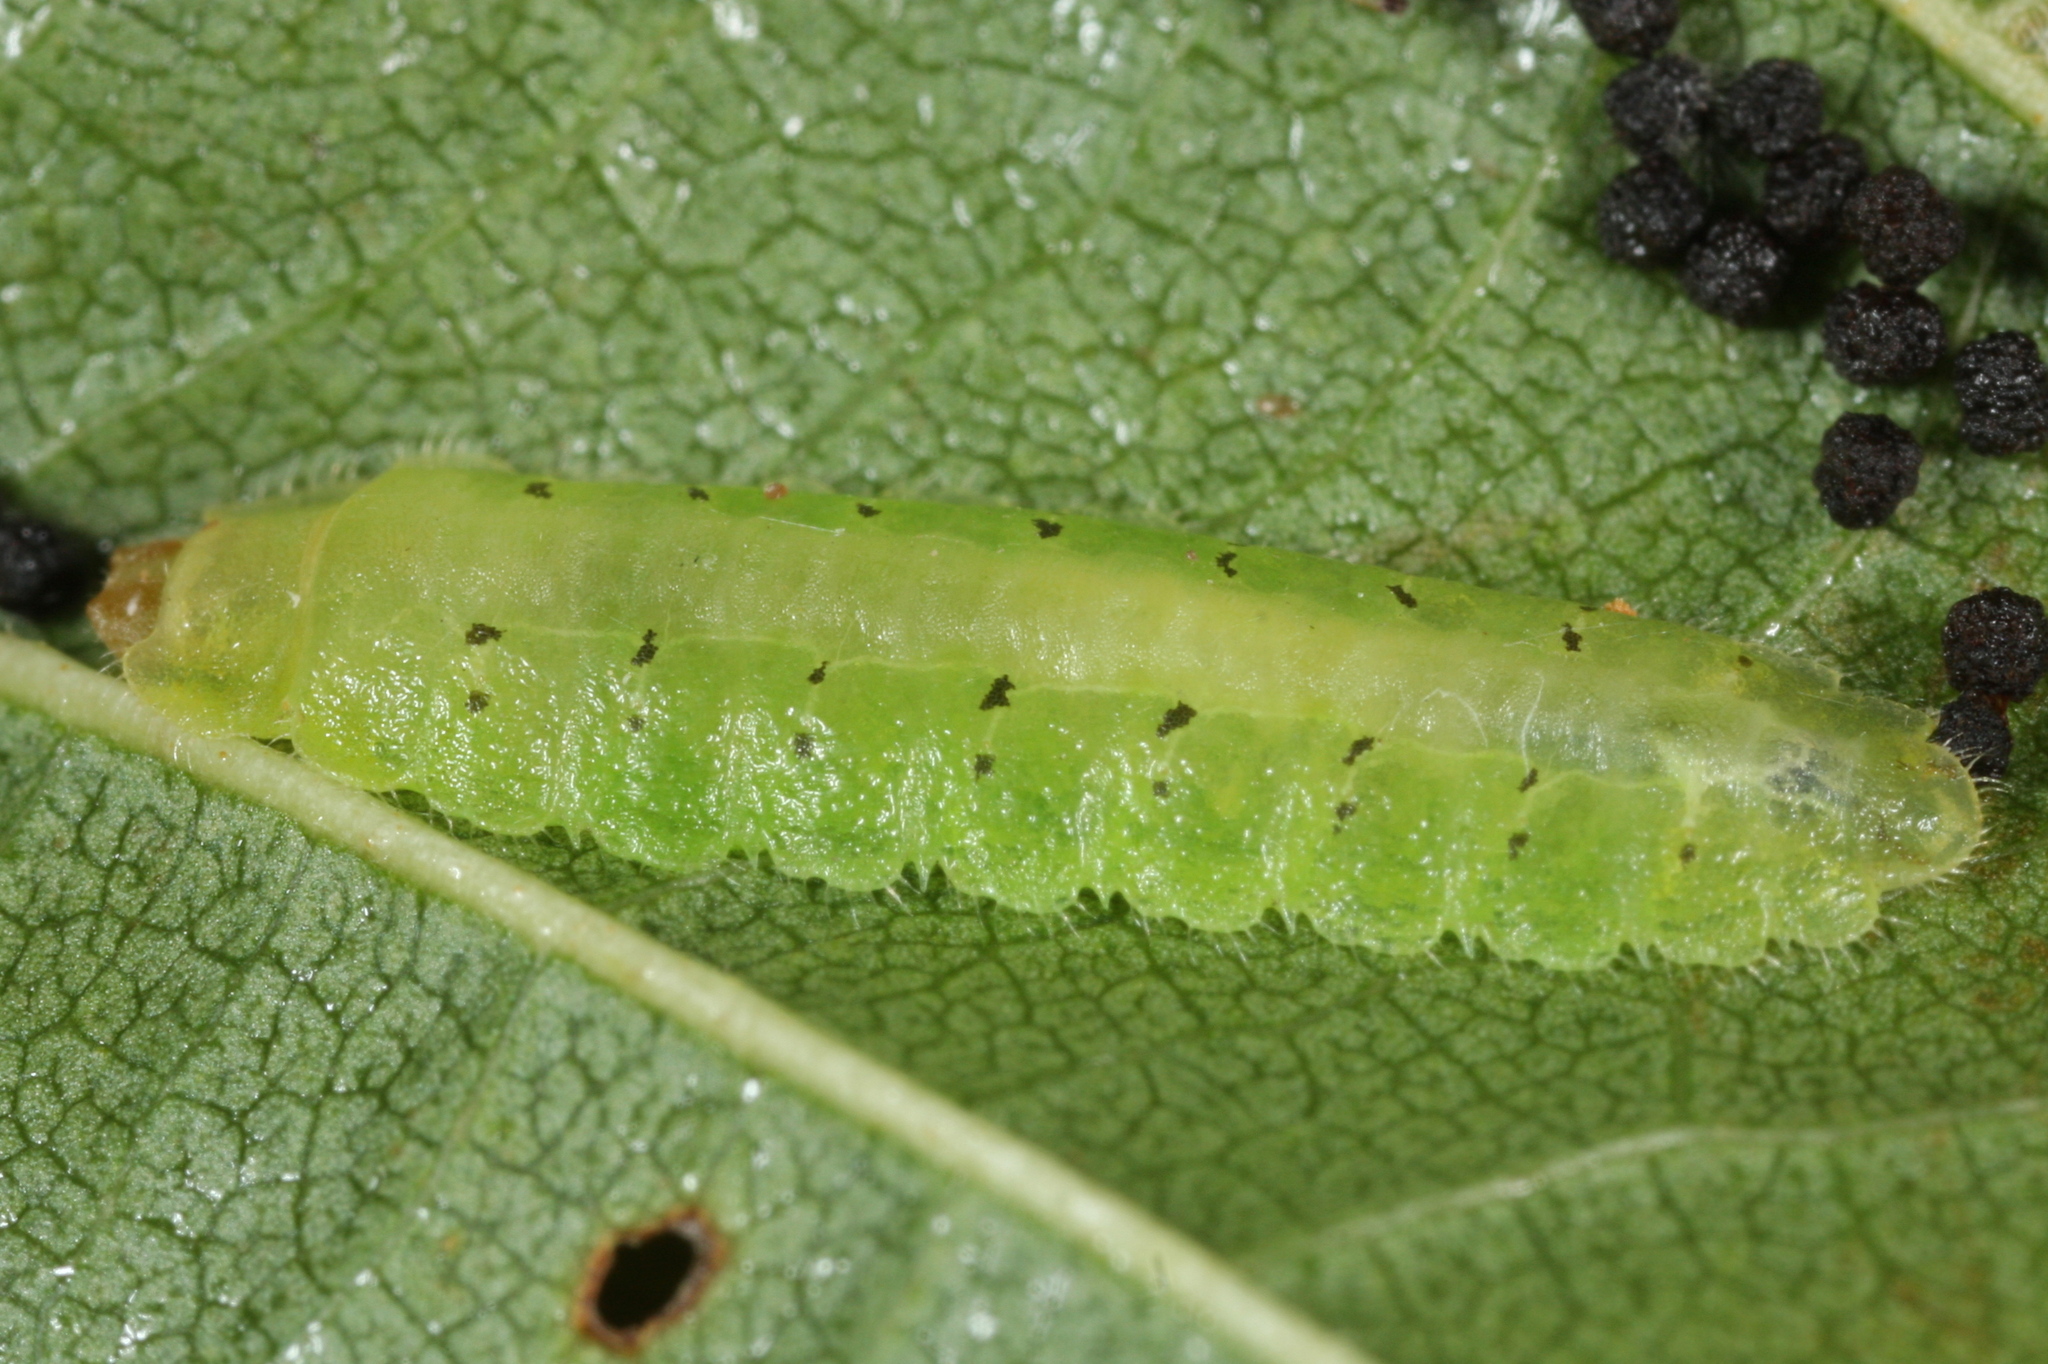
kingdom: Animalia
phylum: Arthropoda
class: Insecta
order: Hymenoptera
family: Tenthredinidae
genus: Platycampus
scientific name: Platycampus luridiventris
